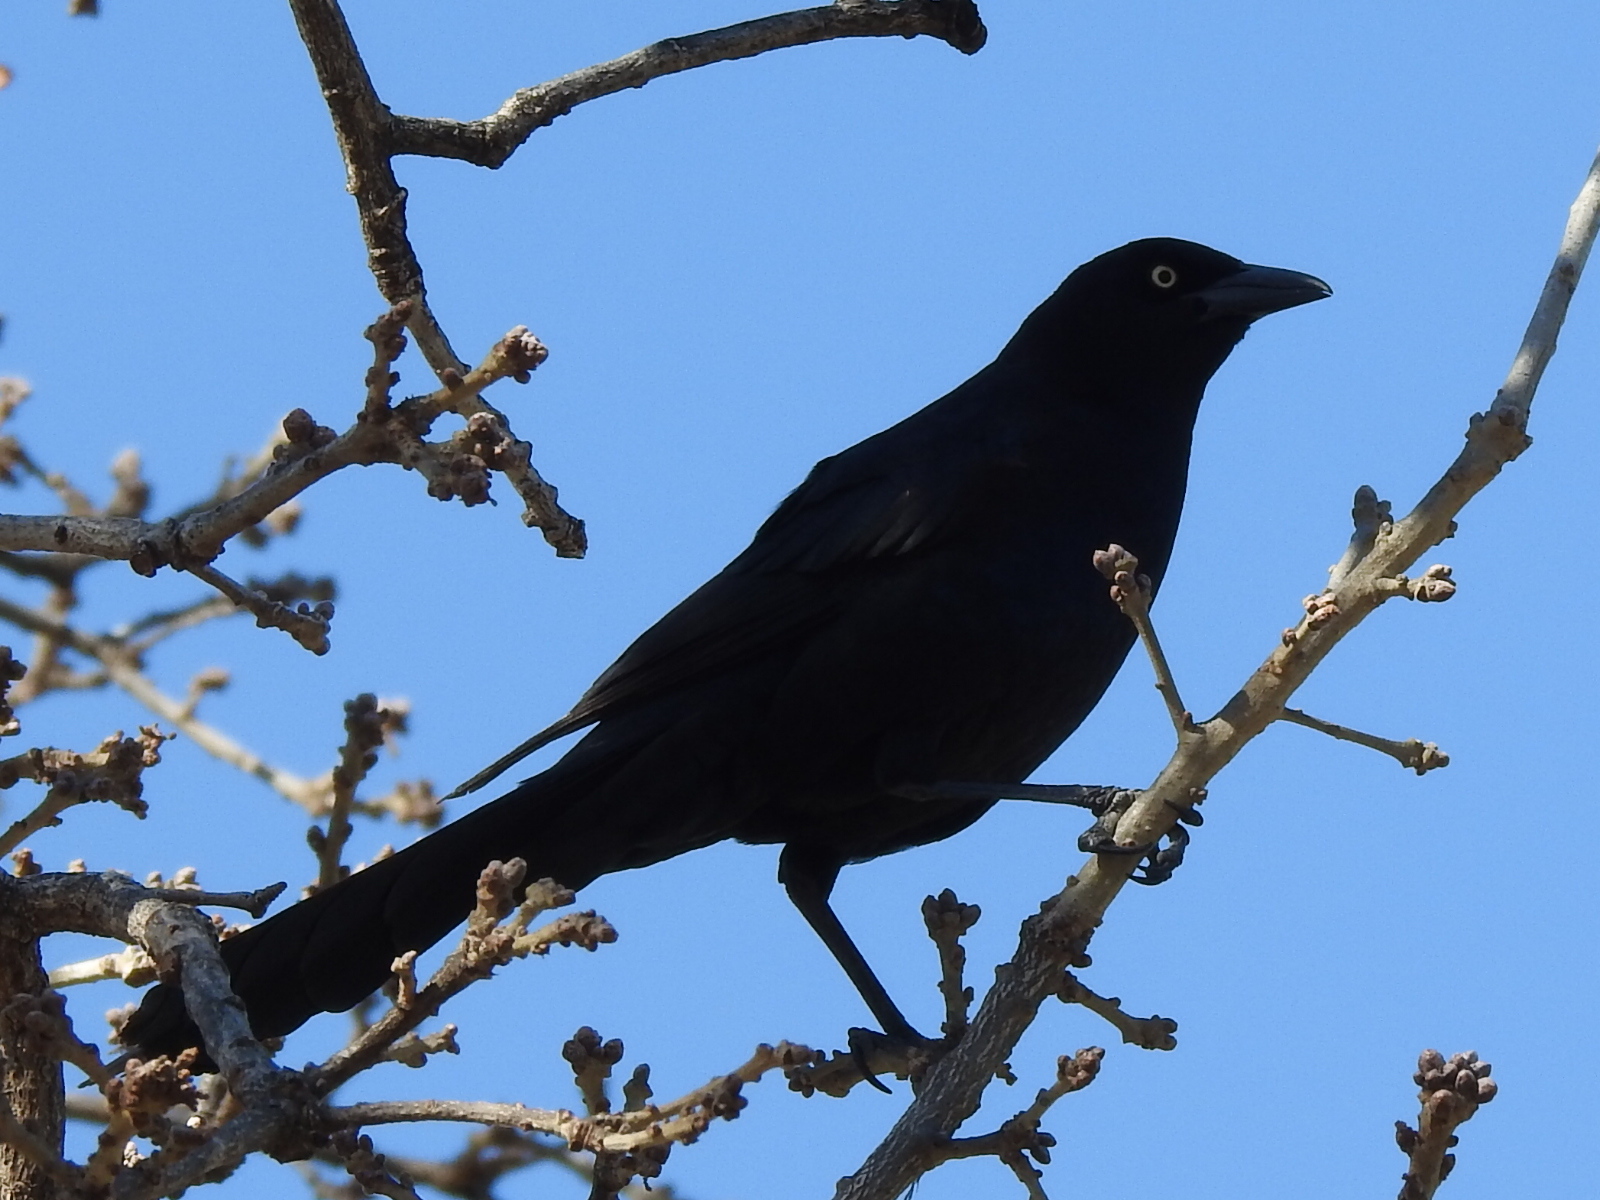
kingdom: Animalia
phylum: Chordata
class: Aves
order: Passeriformes
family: Icteridae
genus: Quiscalus
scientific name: Quiscalus mexicanus
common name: Great-tailed grackle
